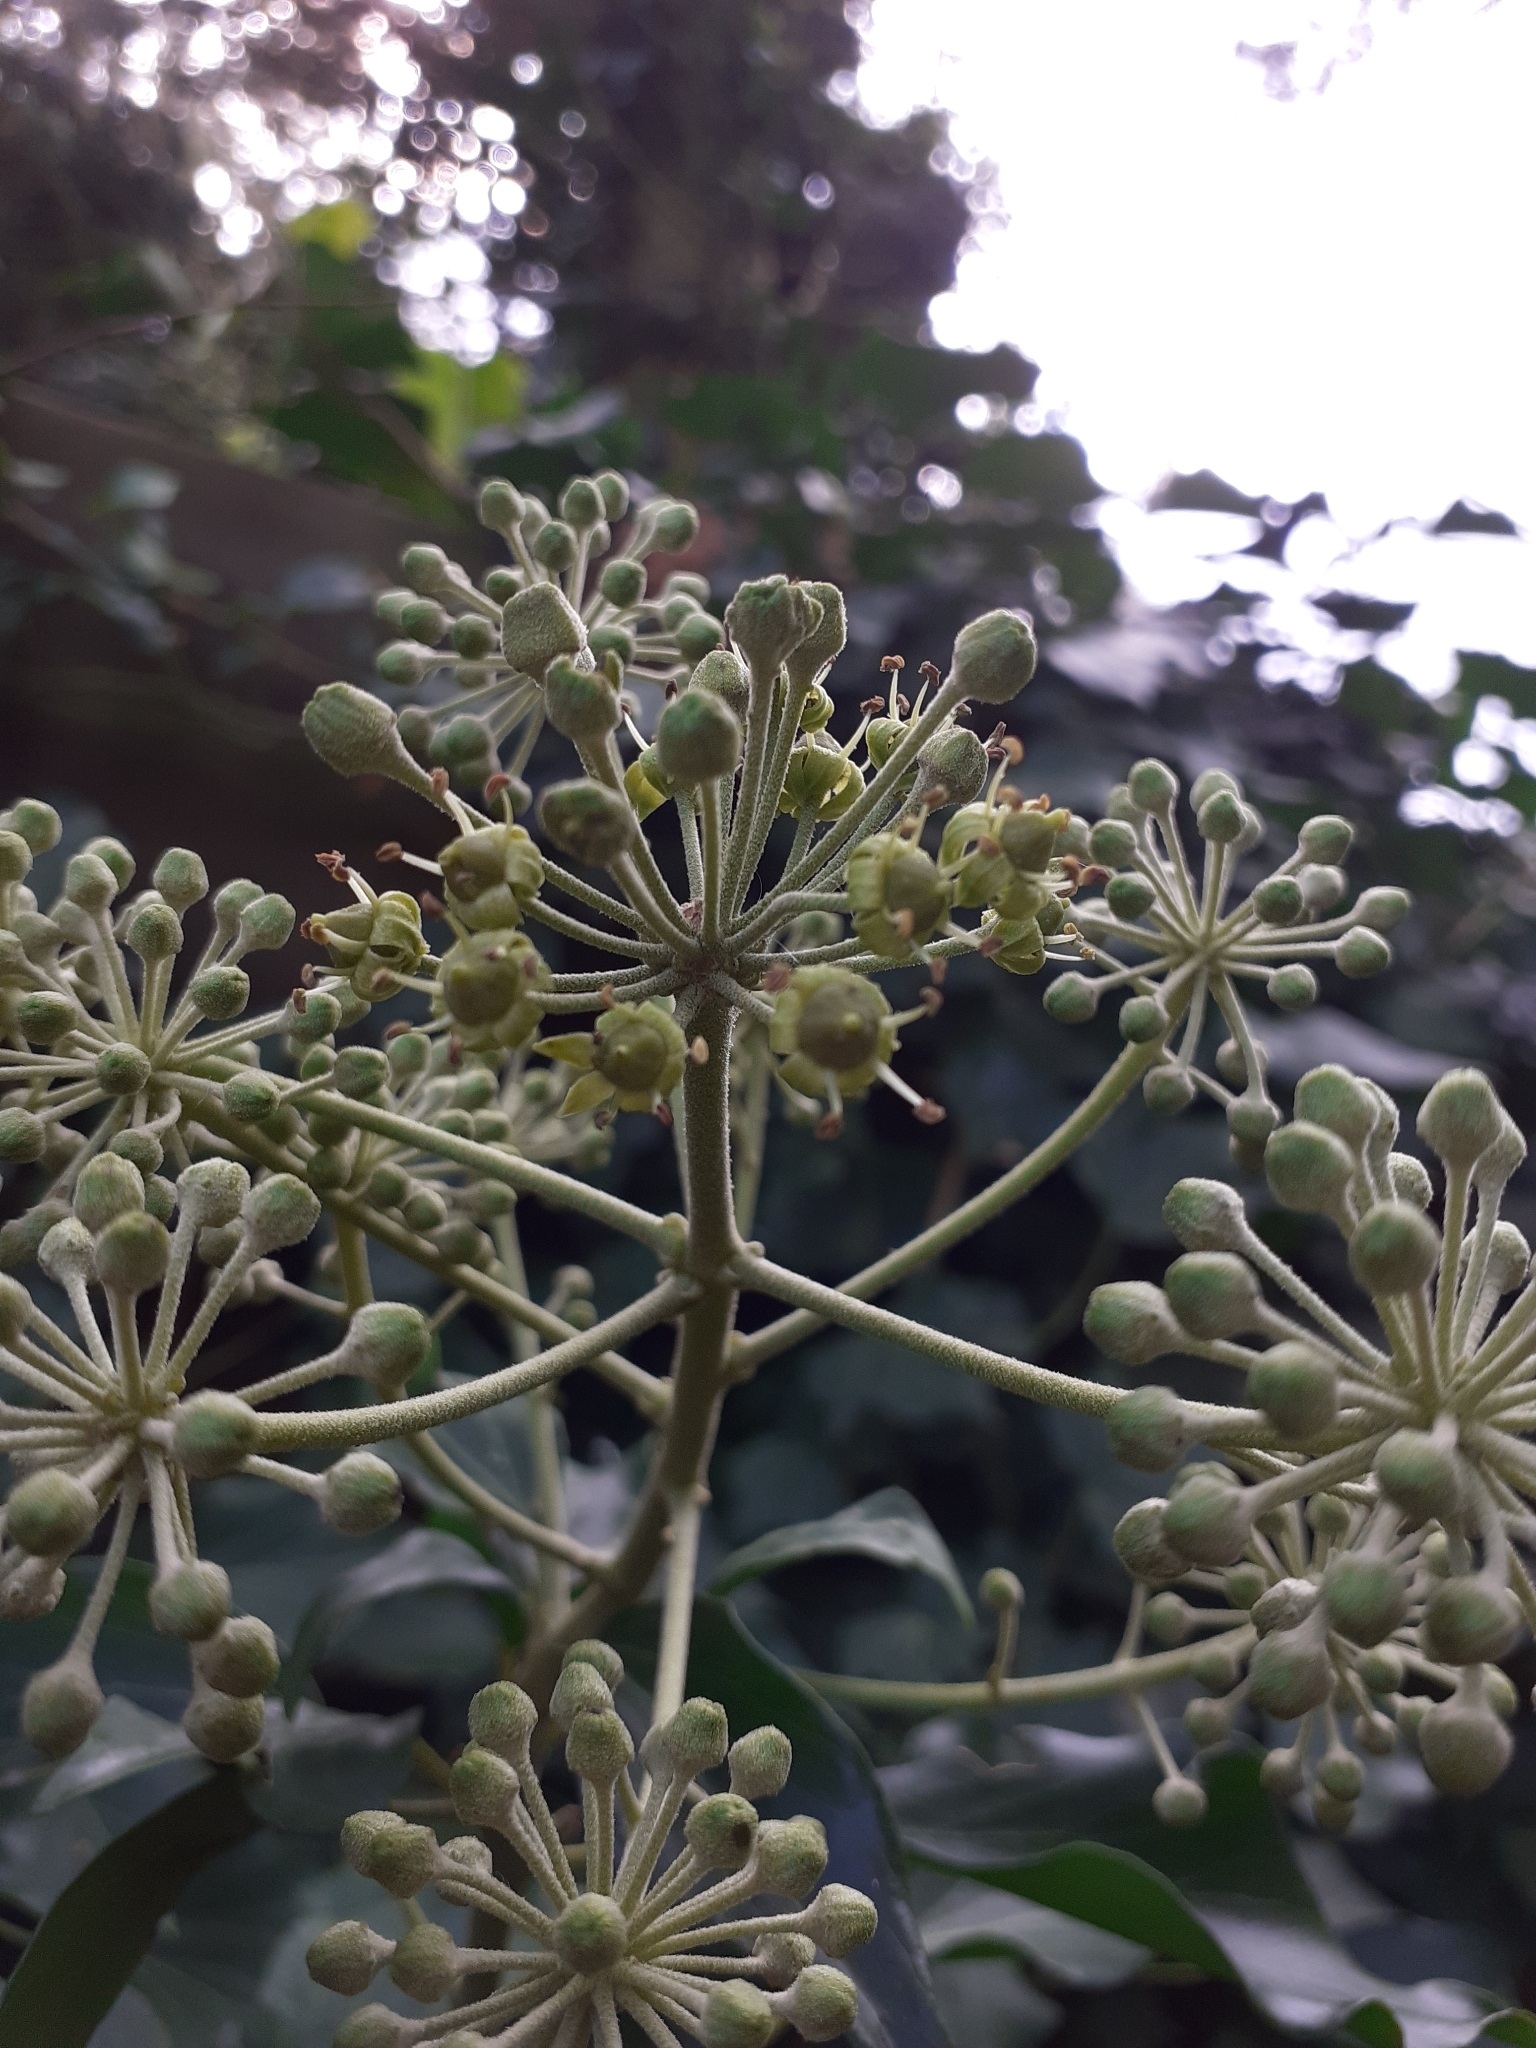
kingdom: Plantae
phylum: Tracheophyta
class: Magnoliopsida
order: Apiales
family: Araliaceae
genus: Fatsia
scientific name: Fatsia japonica
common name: Fatsia
